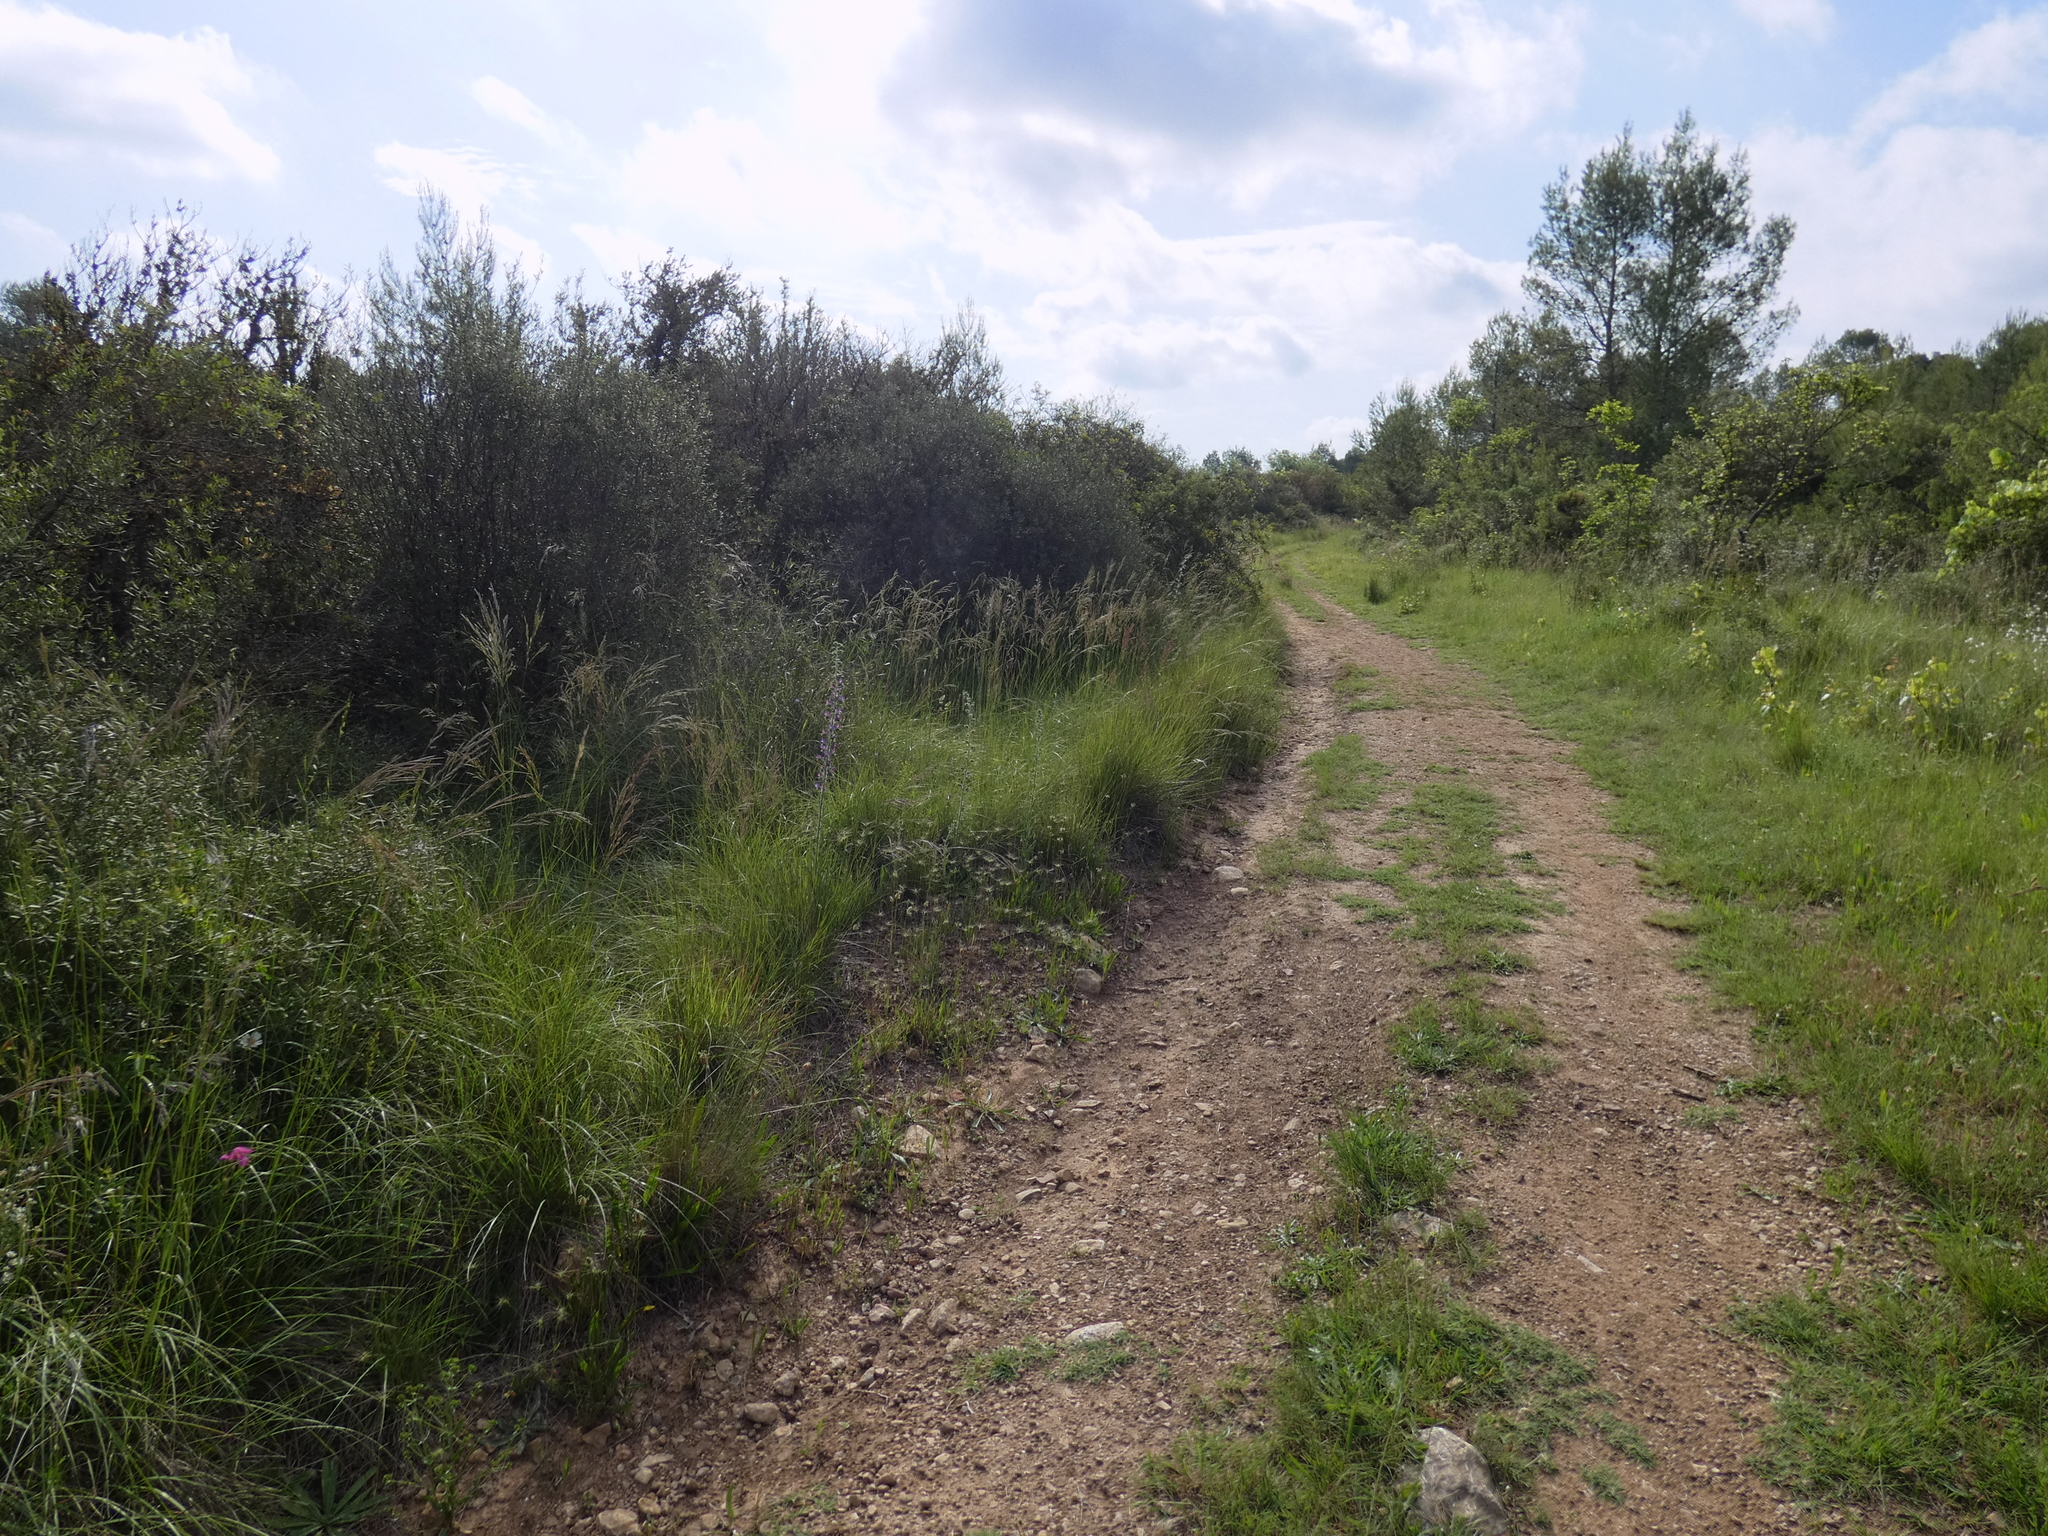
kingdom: Plantae
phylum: Tracheophyta
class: Liliopsida
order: Asparagales
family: Iridaceae
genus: Gladiolus
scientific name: Gladiolus dubius
